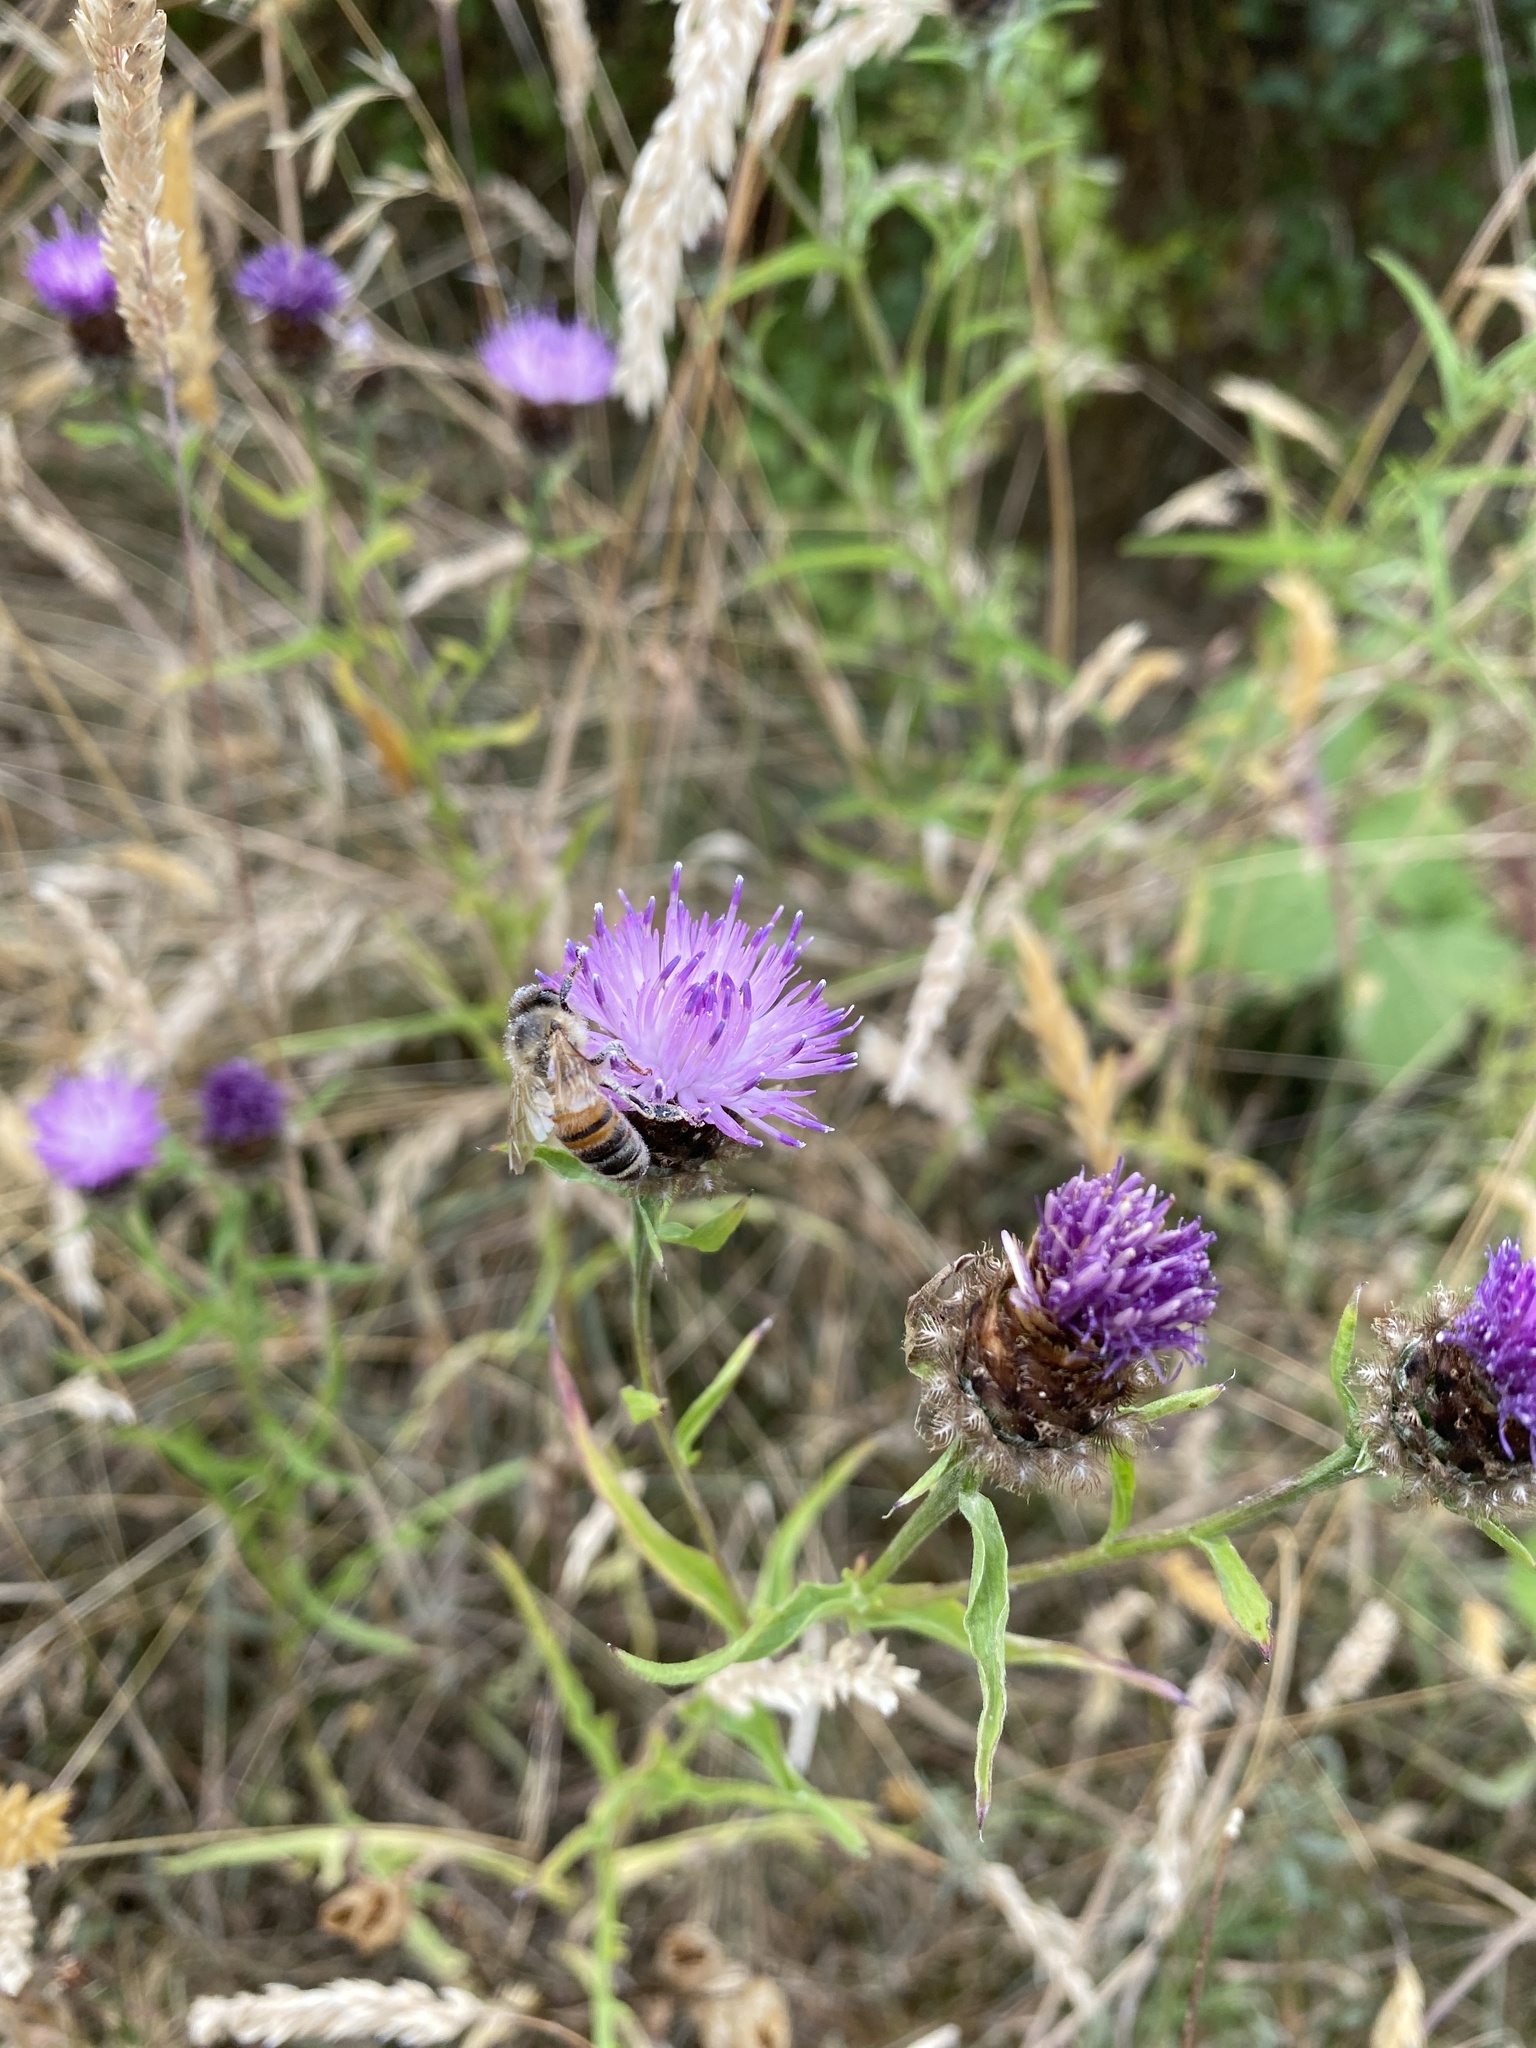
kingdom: Animalia
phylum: Arthropoda
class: Insecta
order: Hymenoptera
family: Apidae
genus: Apis
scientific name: Apis mellifera
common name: Honey bee
